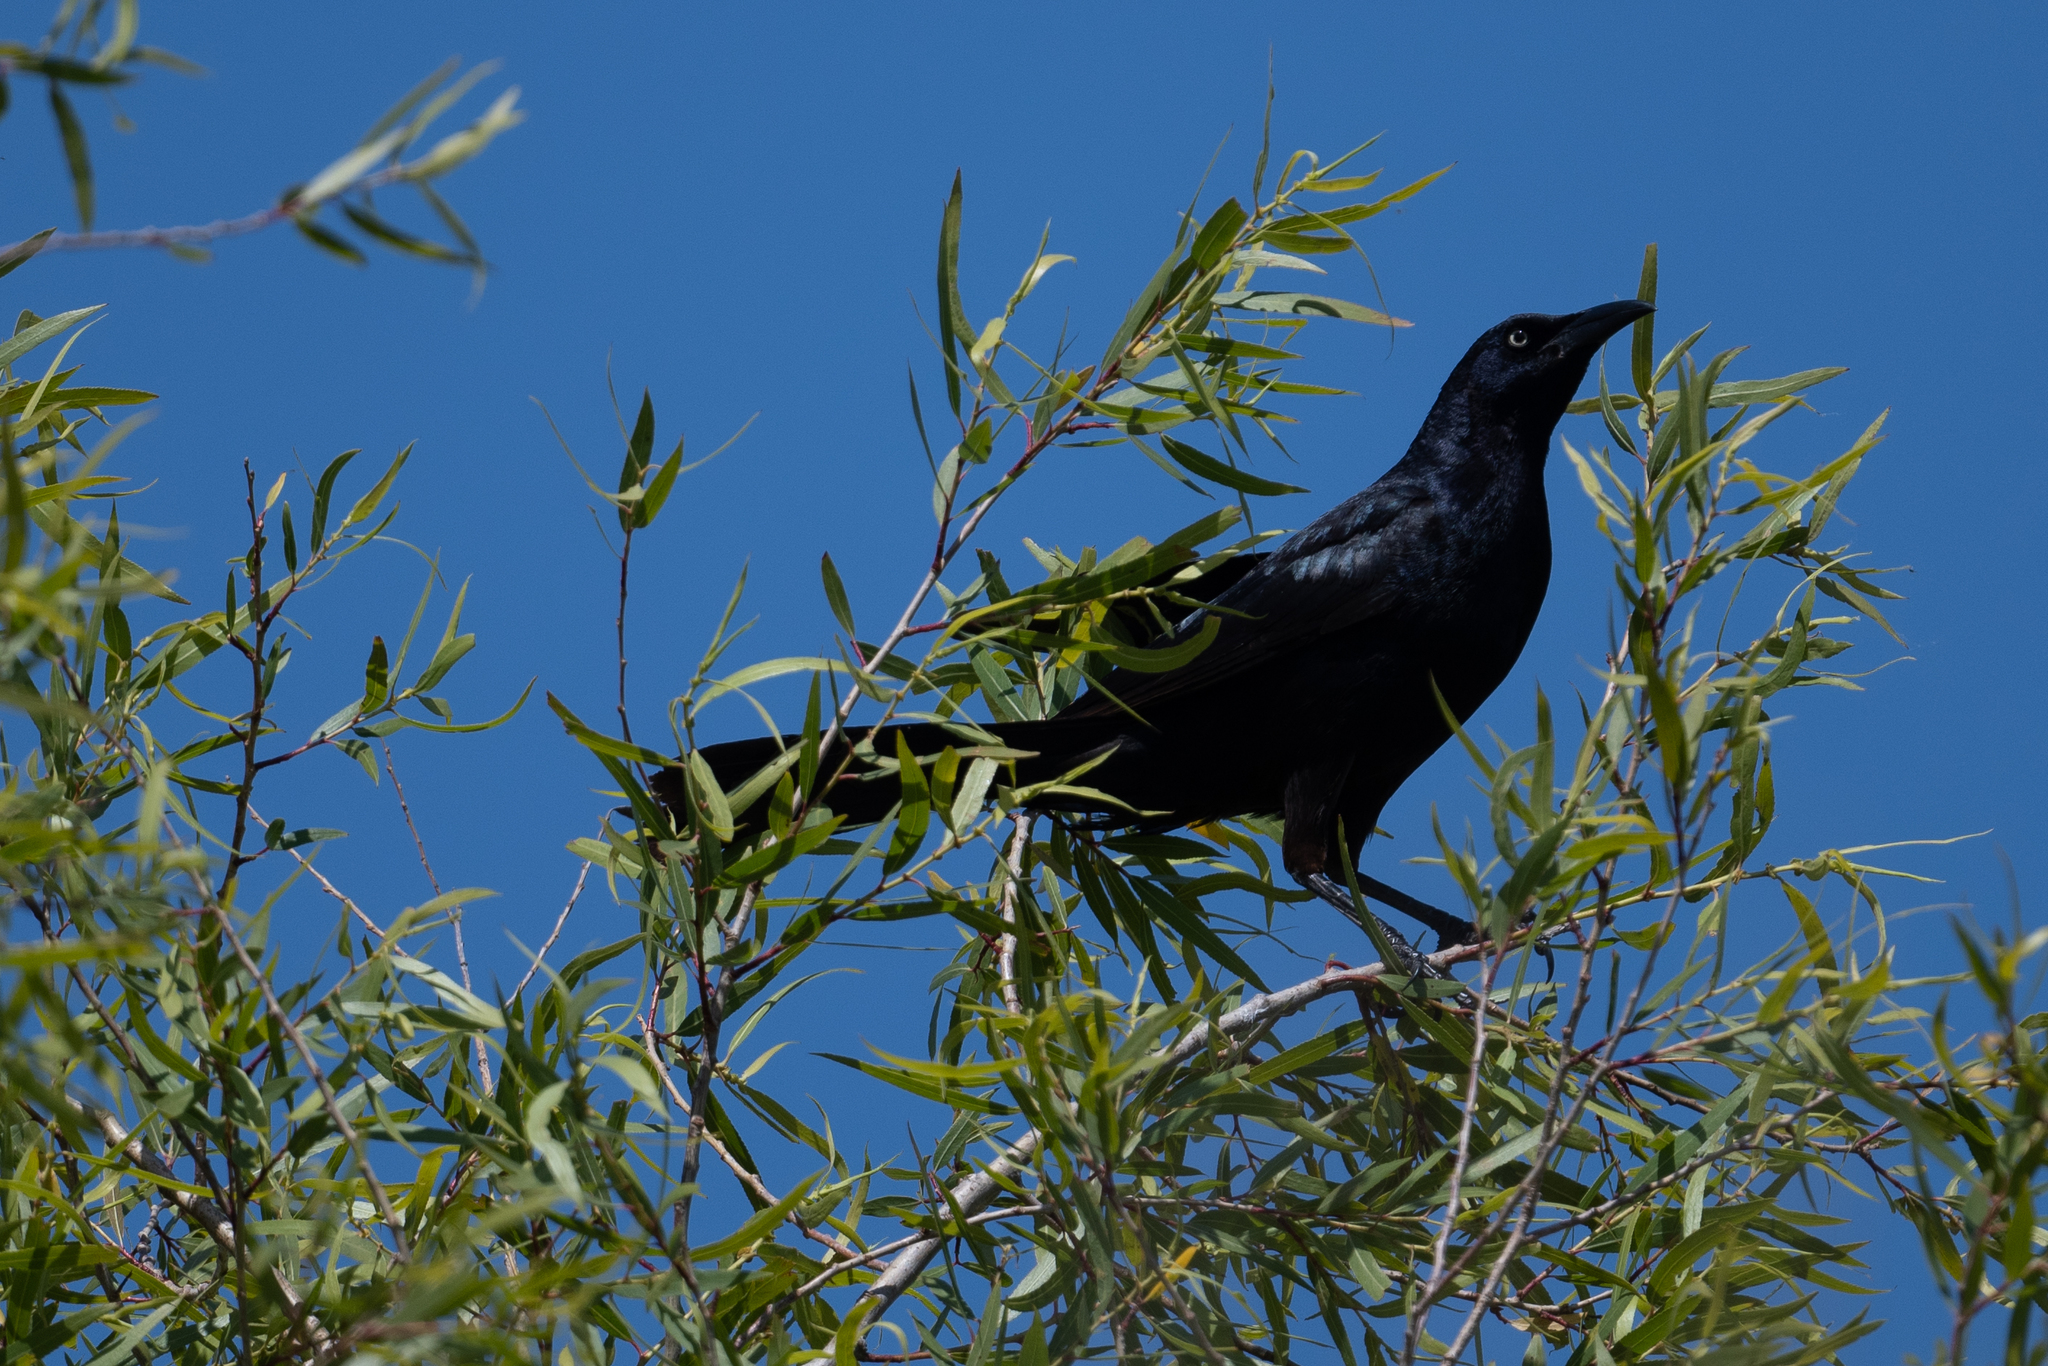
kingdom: Animalia
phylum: Chordata
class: Aves
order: Passeriformes
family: Icteridae
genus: Quiscalus
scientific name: Quiscalus mexicanus
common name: Great-tailed grackle
